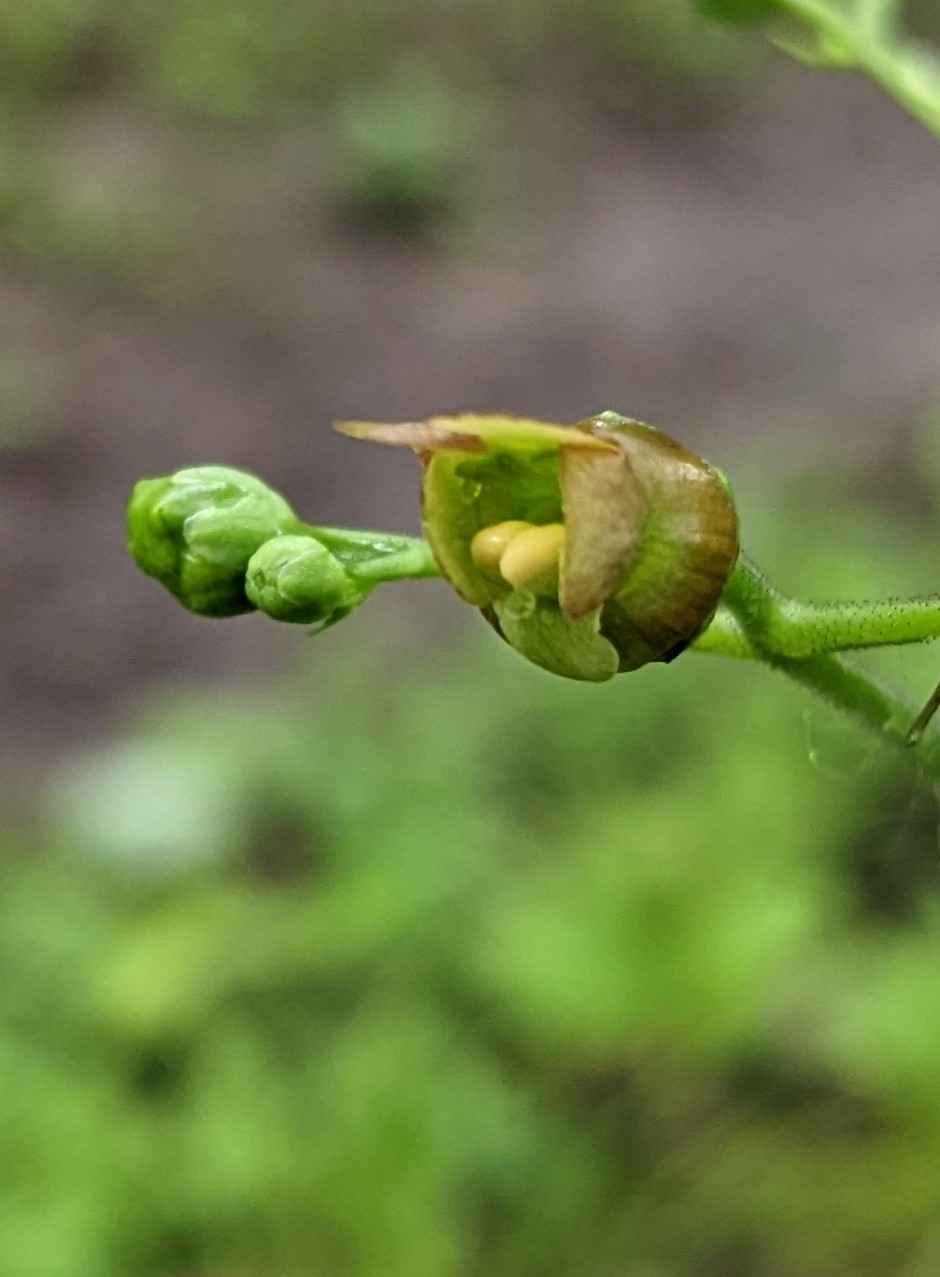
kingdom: Plantae
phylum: Tracheophyta
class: Magnoliopsida
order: Lamiales
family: Scrophulariaceae
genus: Scrophularia
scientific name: Scrophularia lanceolata
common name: American figwort
